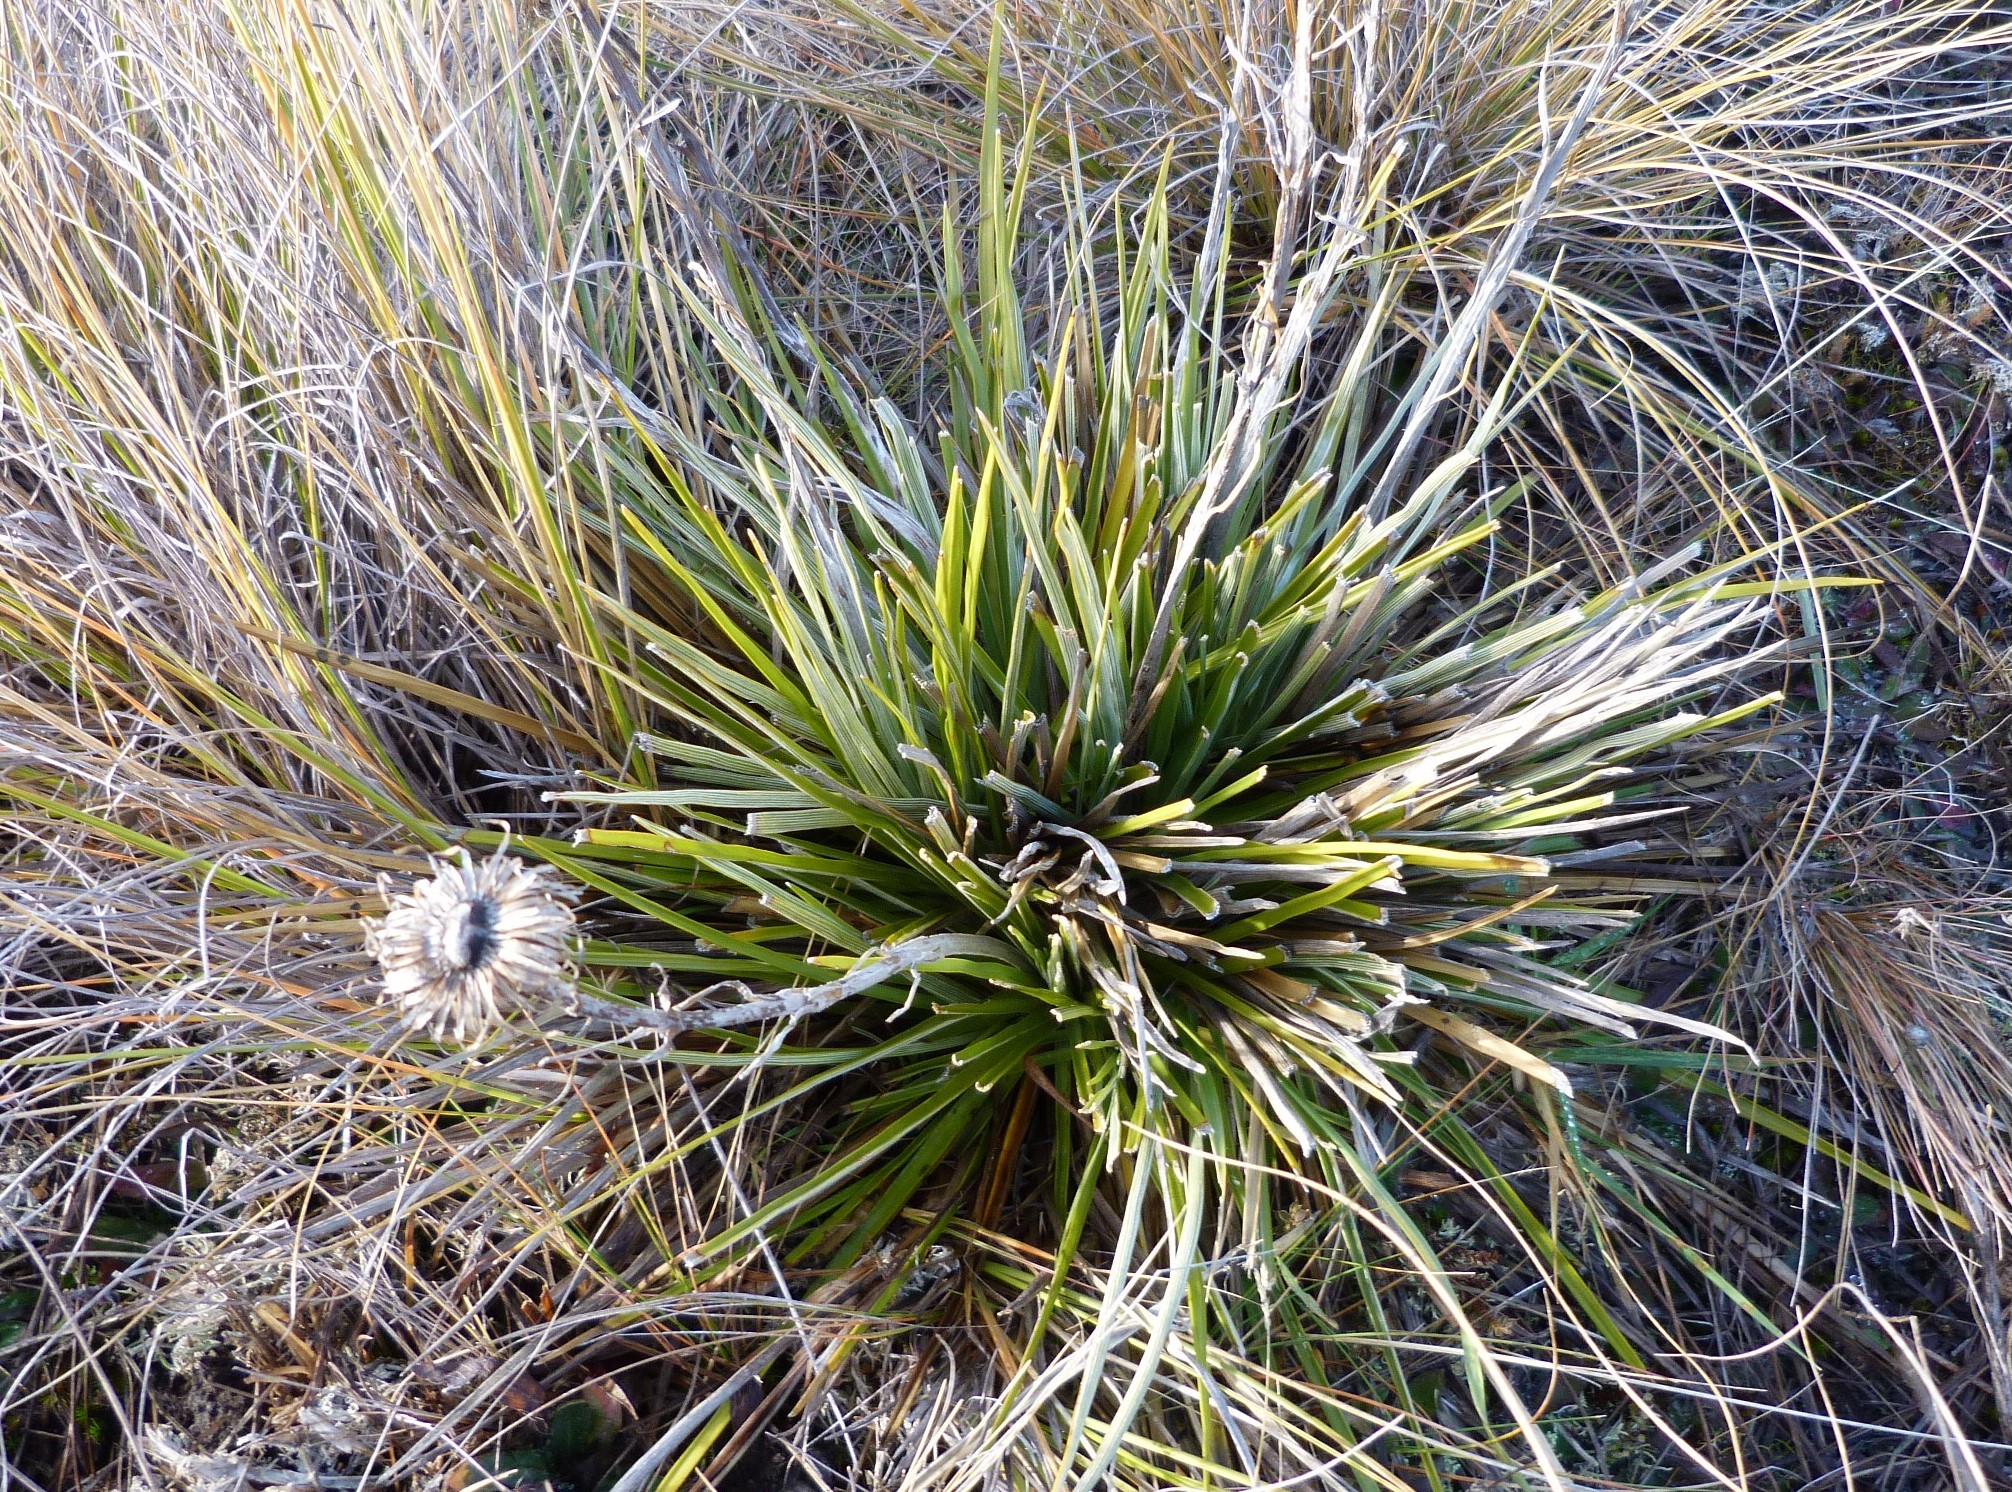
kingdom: Plantae
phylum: Tracheophyta
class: Magnoliopsida
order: Asterales
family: Asteraceae
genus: Celmisia
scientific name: Celmisia lyallii
